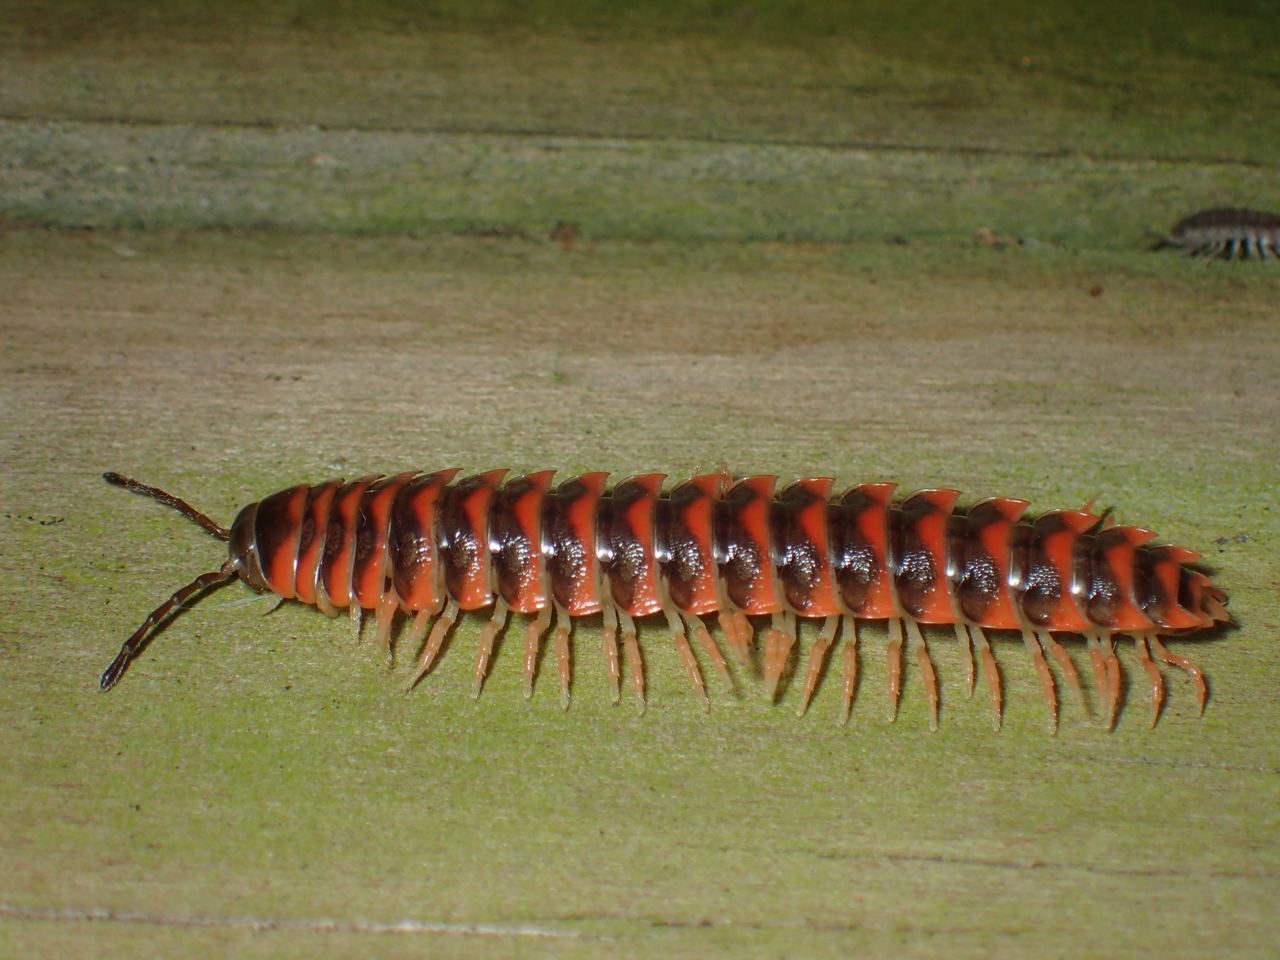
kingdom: Animalia
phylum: Arthropoda
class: Diplopoda
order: Polydesmida
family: Xystodesmidae
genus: Cherokia
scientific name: Cherokia georgiana
